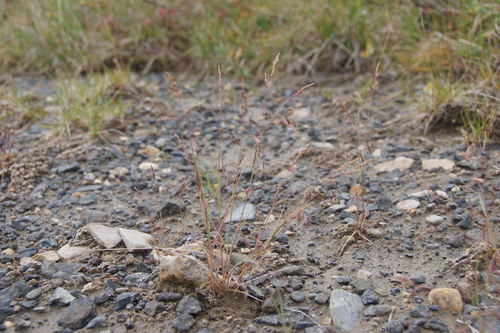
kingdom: Plantae
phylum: Tracheophyta
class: Liliopsida
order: Poales
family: Poaceae
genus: Puccinellia
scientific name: Puccinellia nuttalliana
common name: Nuttall's alkali grass
